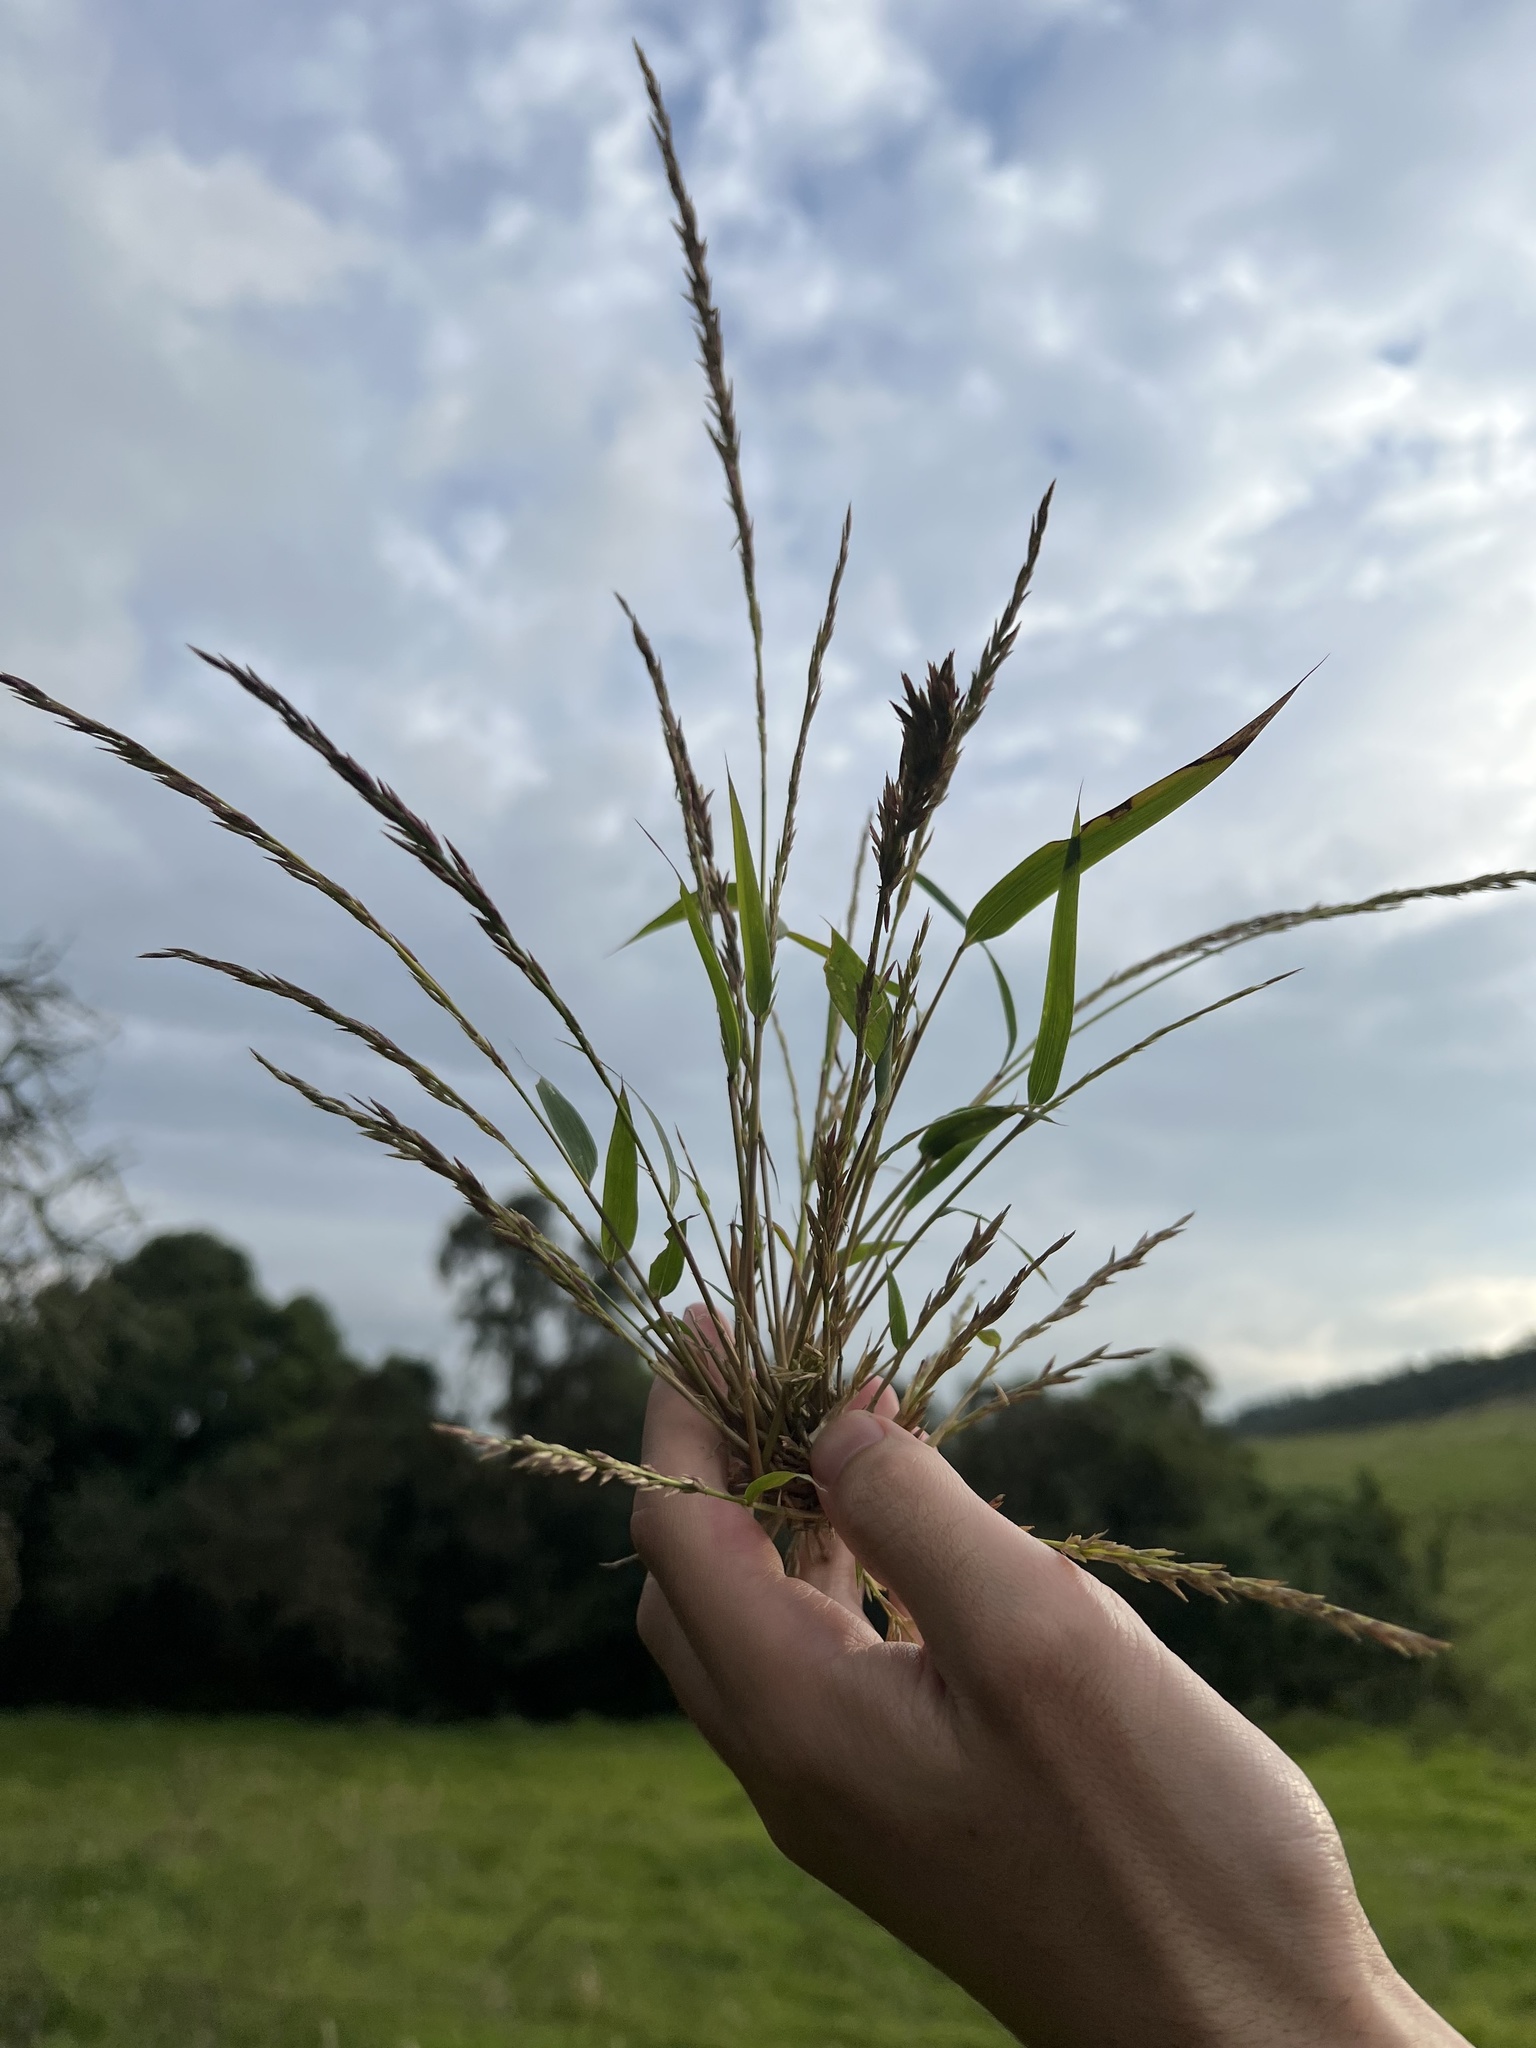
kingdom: Plantae
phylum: Tracheophyta
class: Liliopsida
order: Poales
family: Poaceae
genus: Chusquea
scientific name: Chusquea scandens
